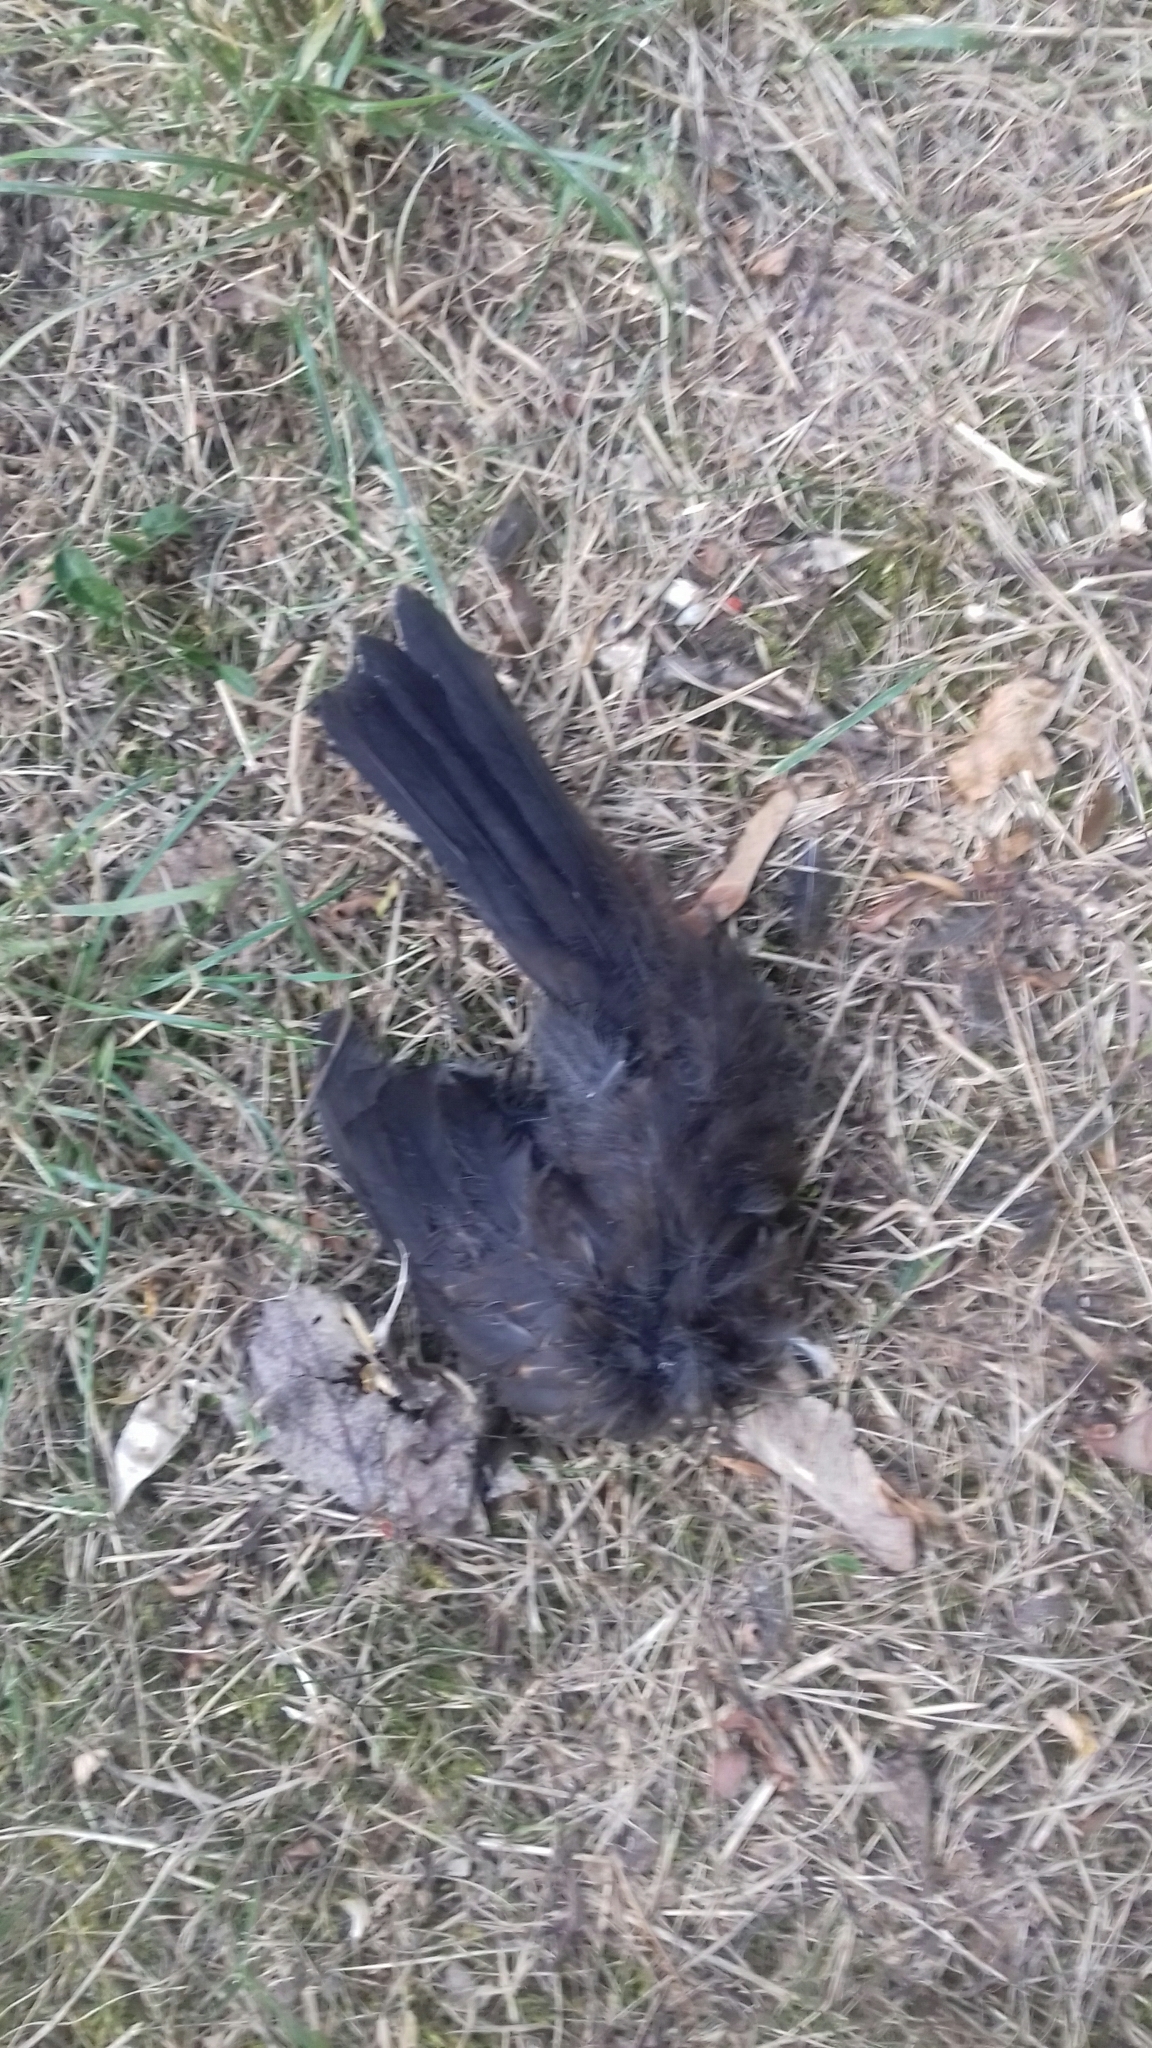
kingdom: Animalia
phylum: Chordata
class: Aves
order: Passeriformes
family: Turdidae
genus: Turdus
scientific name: Turdus merula
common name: Common blackbird
